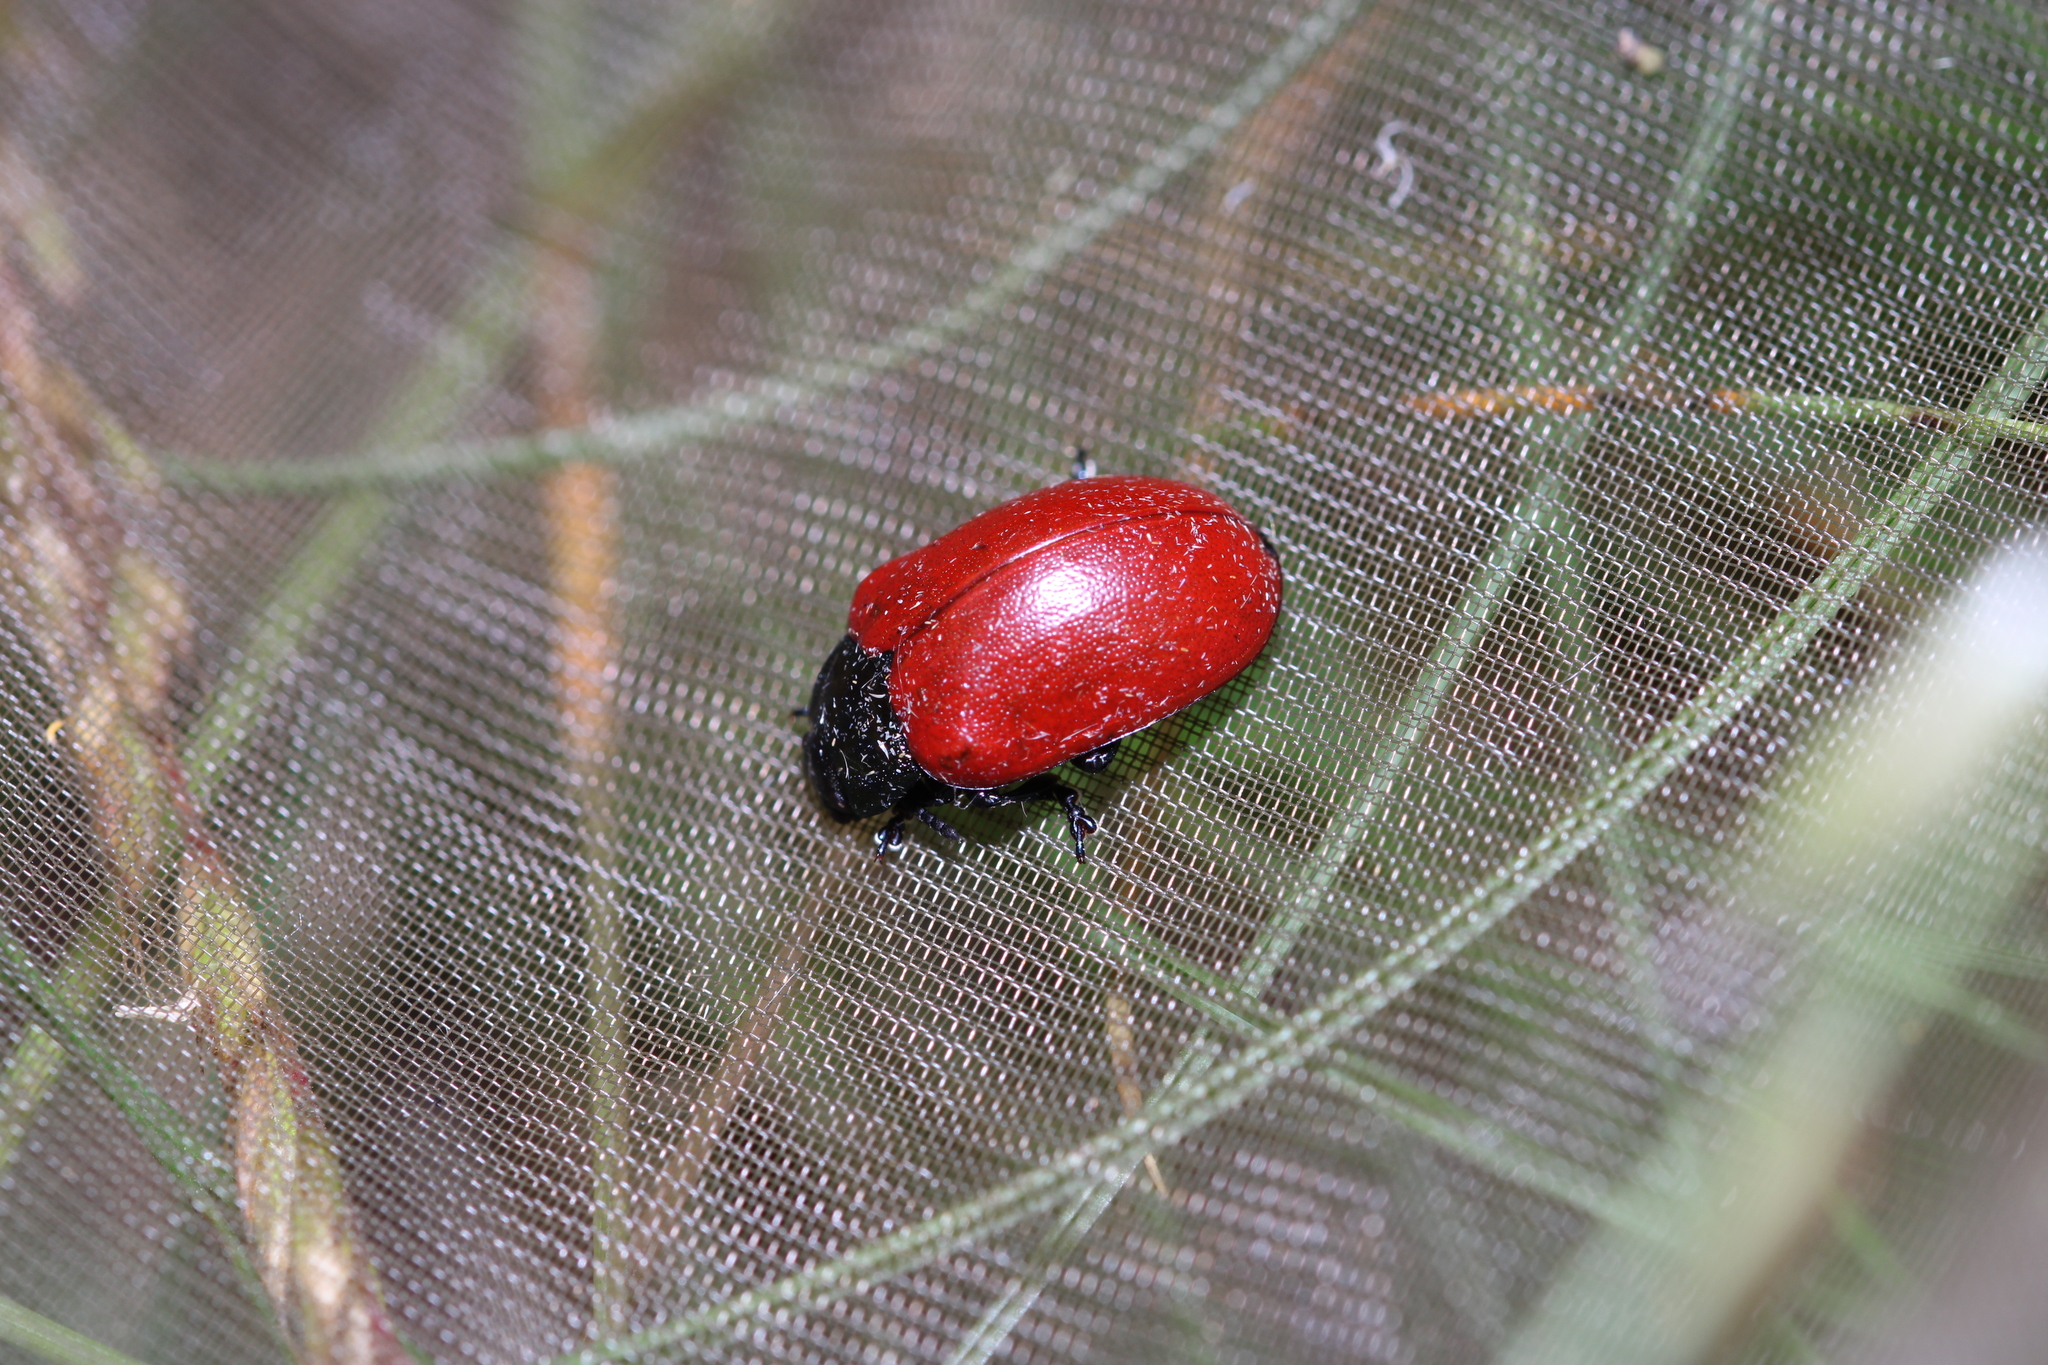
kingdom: Animalia
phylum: Arthropoda
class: Insecta
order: Coleoptera
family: Chrysomelidae
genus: Chrysomela
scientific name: Chrysomela populi
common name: Red poplar leaf beetle
